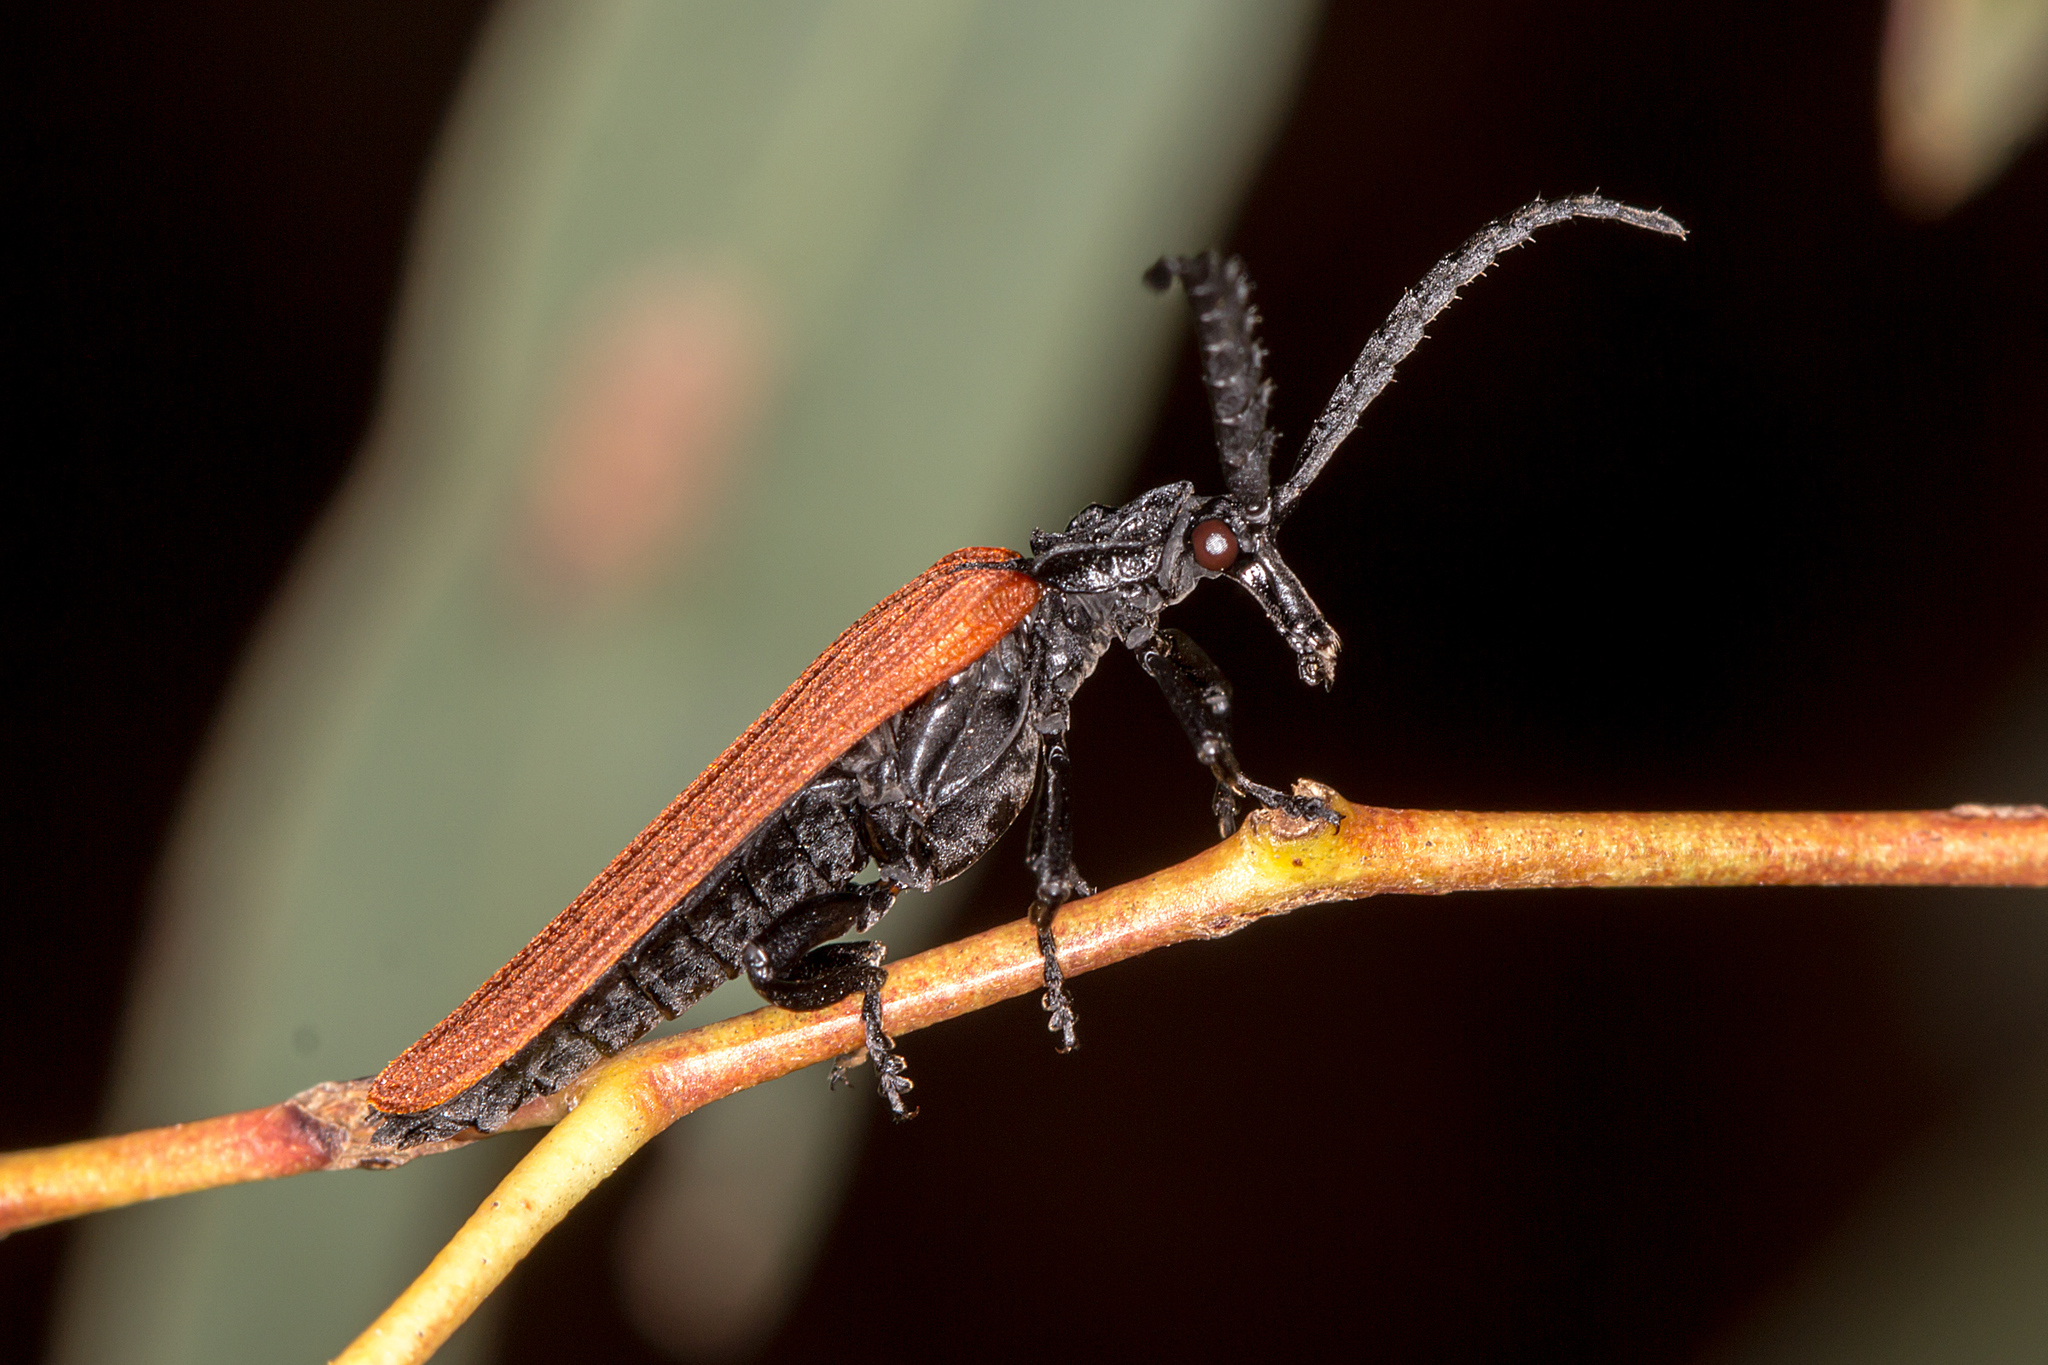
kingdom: Animalia
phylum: Arthropoda
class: Insecta
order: Coleoptera
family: Lycidae
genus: Porrostoma
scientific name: Porrostoma rhipidium
